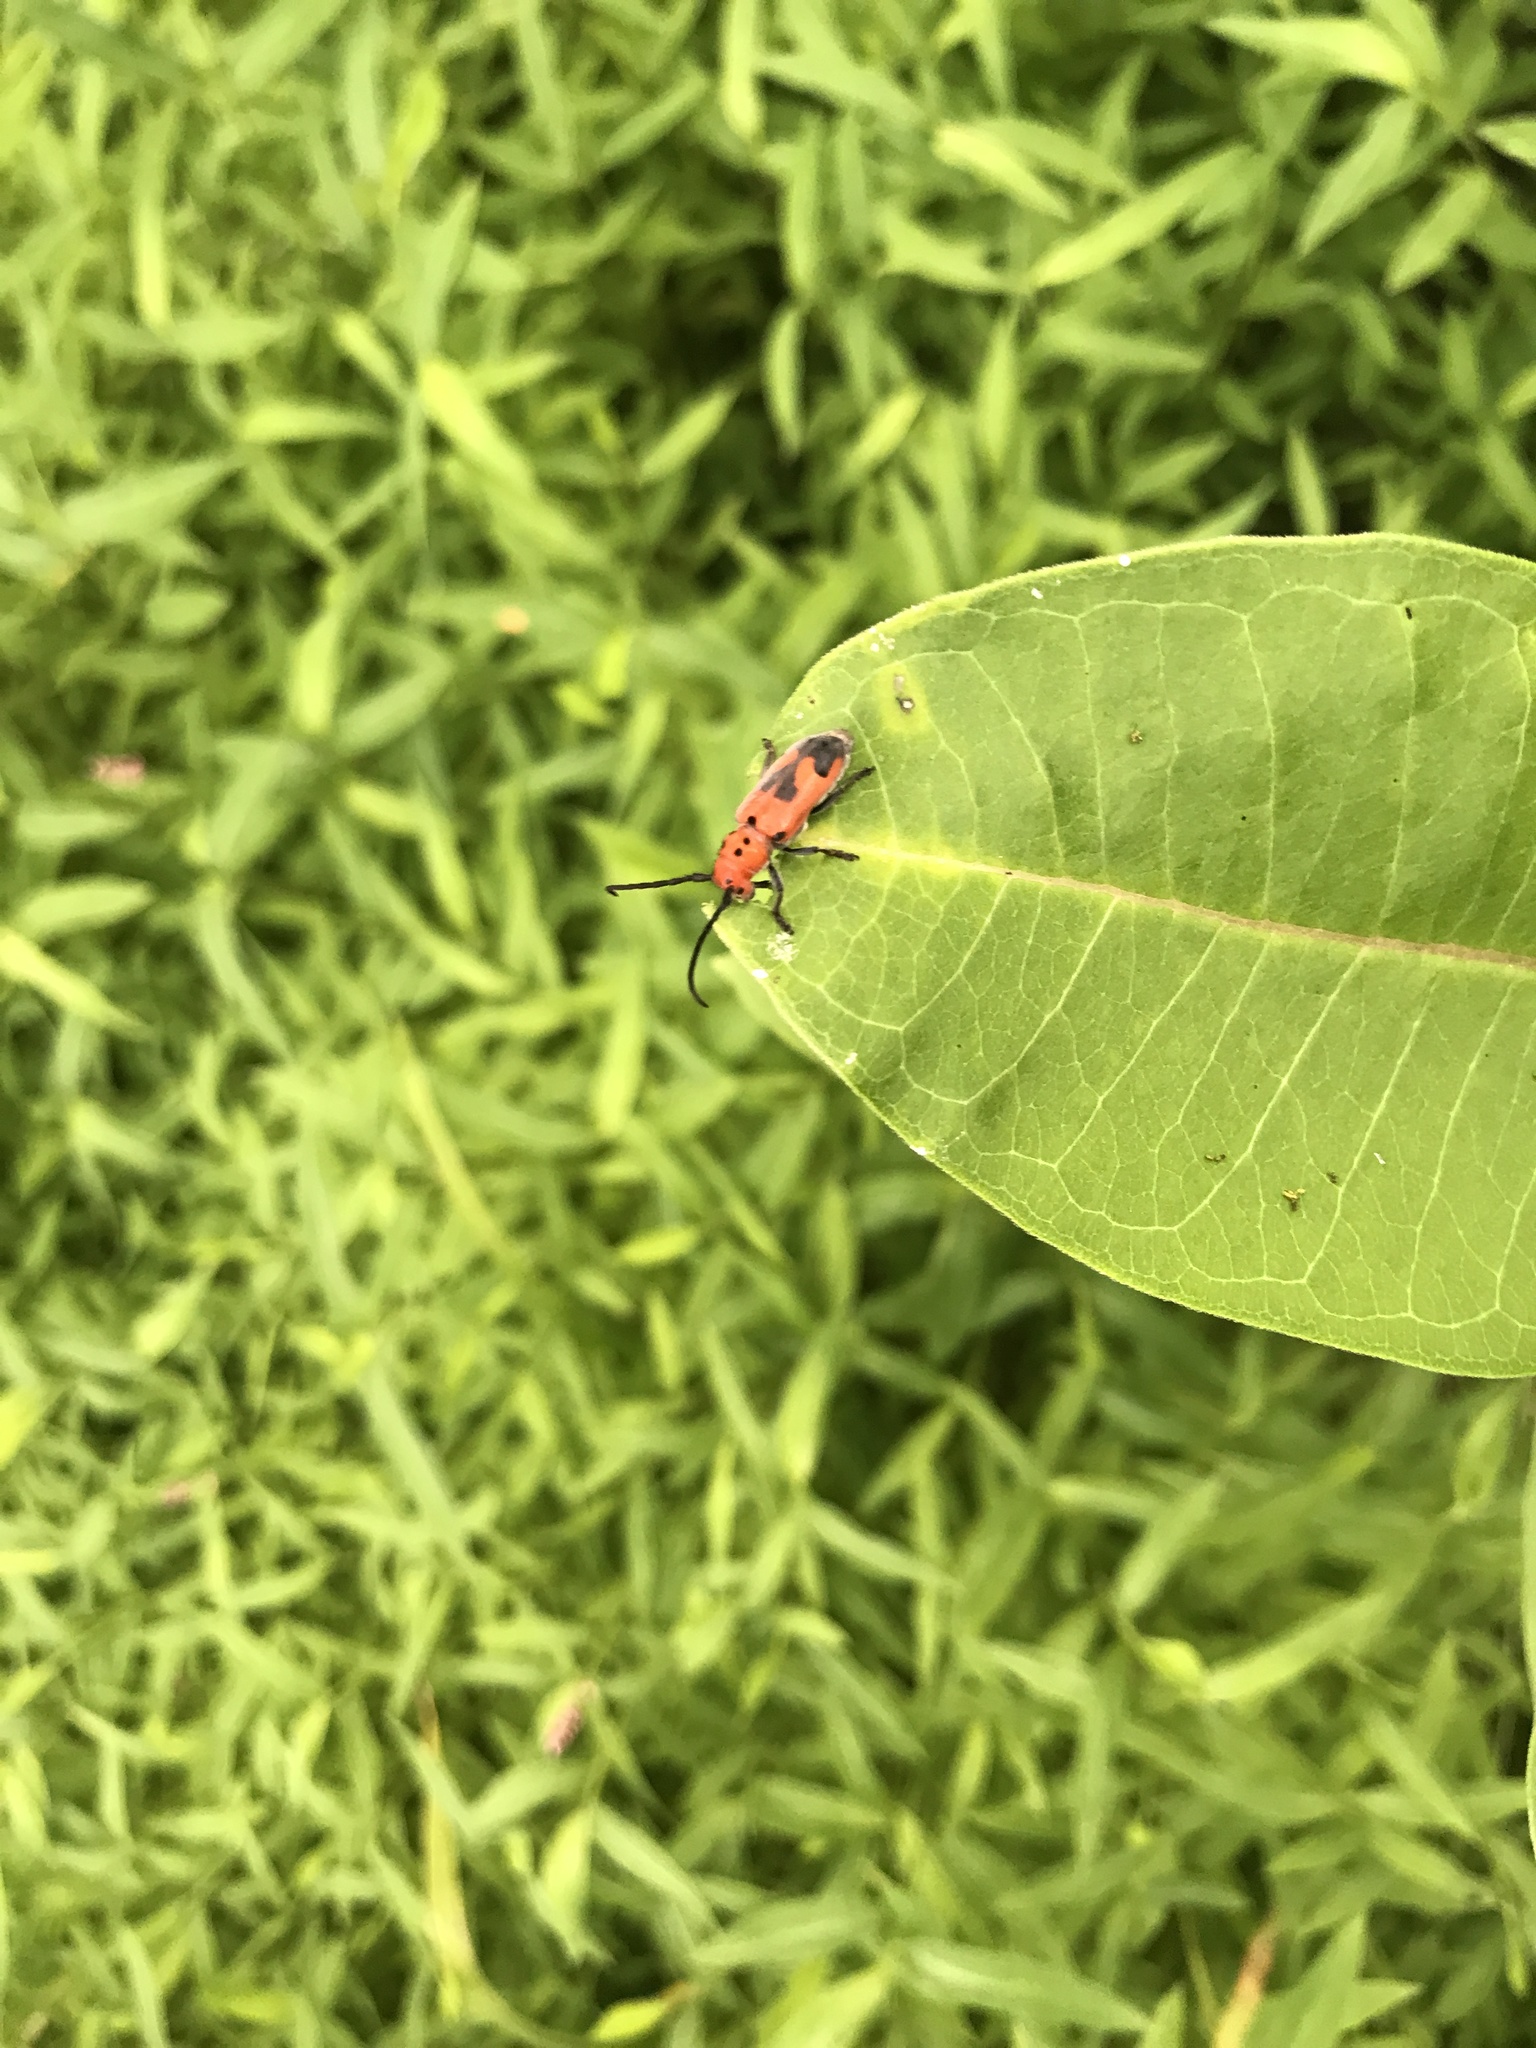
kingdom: Animalia
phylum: Arthropoda
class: Insecta
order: Coleoptera
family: Cerambycidae
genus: Tetraopes
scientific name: Tetraopes tetrophthalmus
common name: Red milkweed beetle
